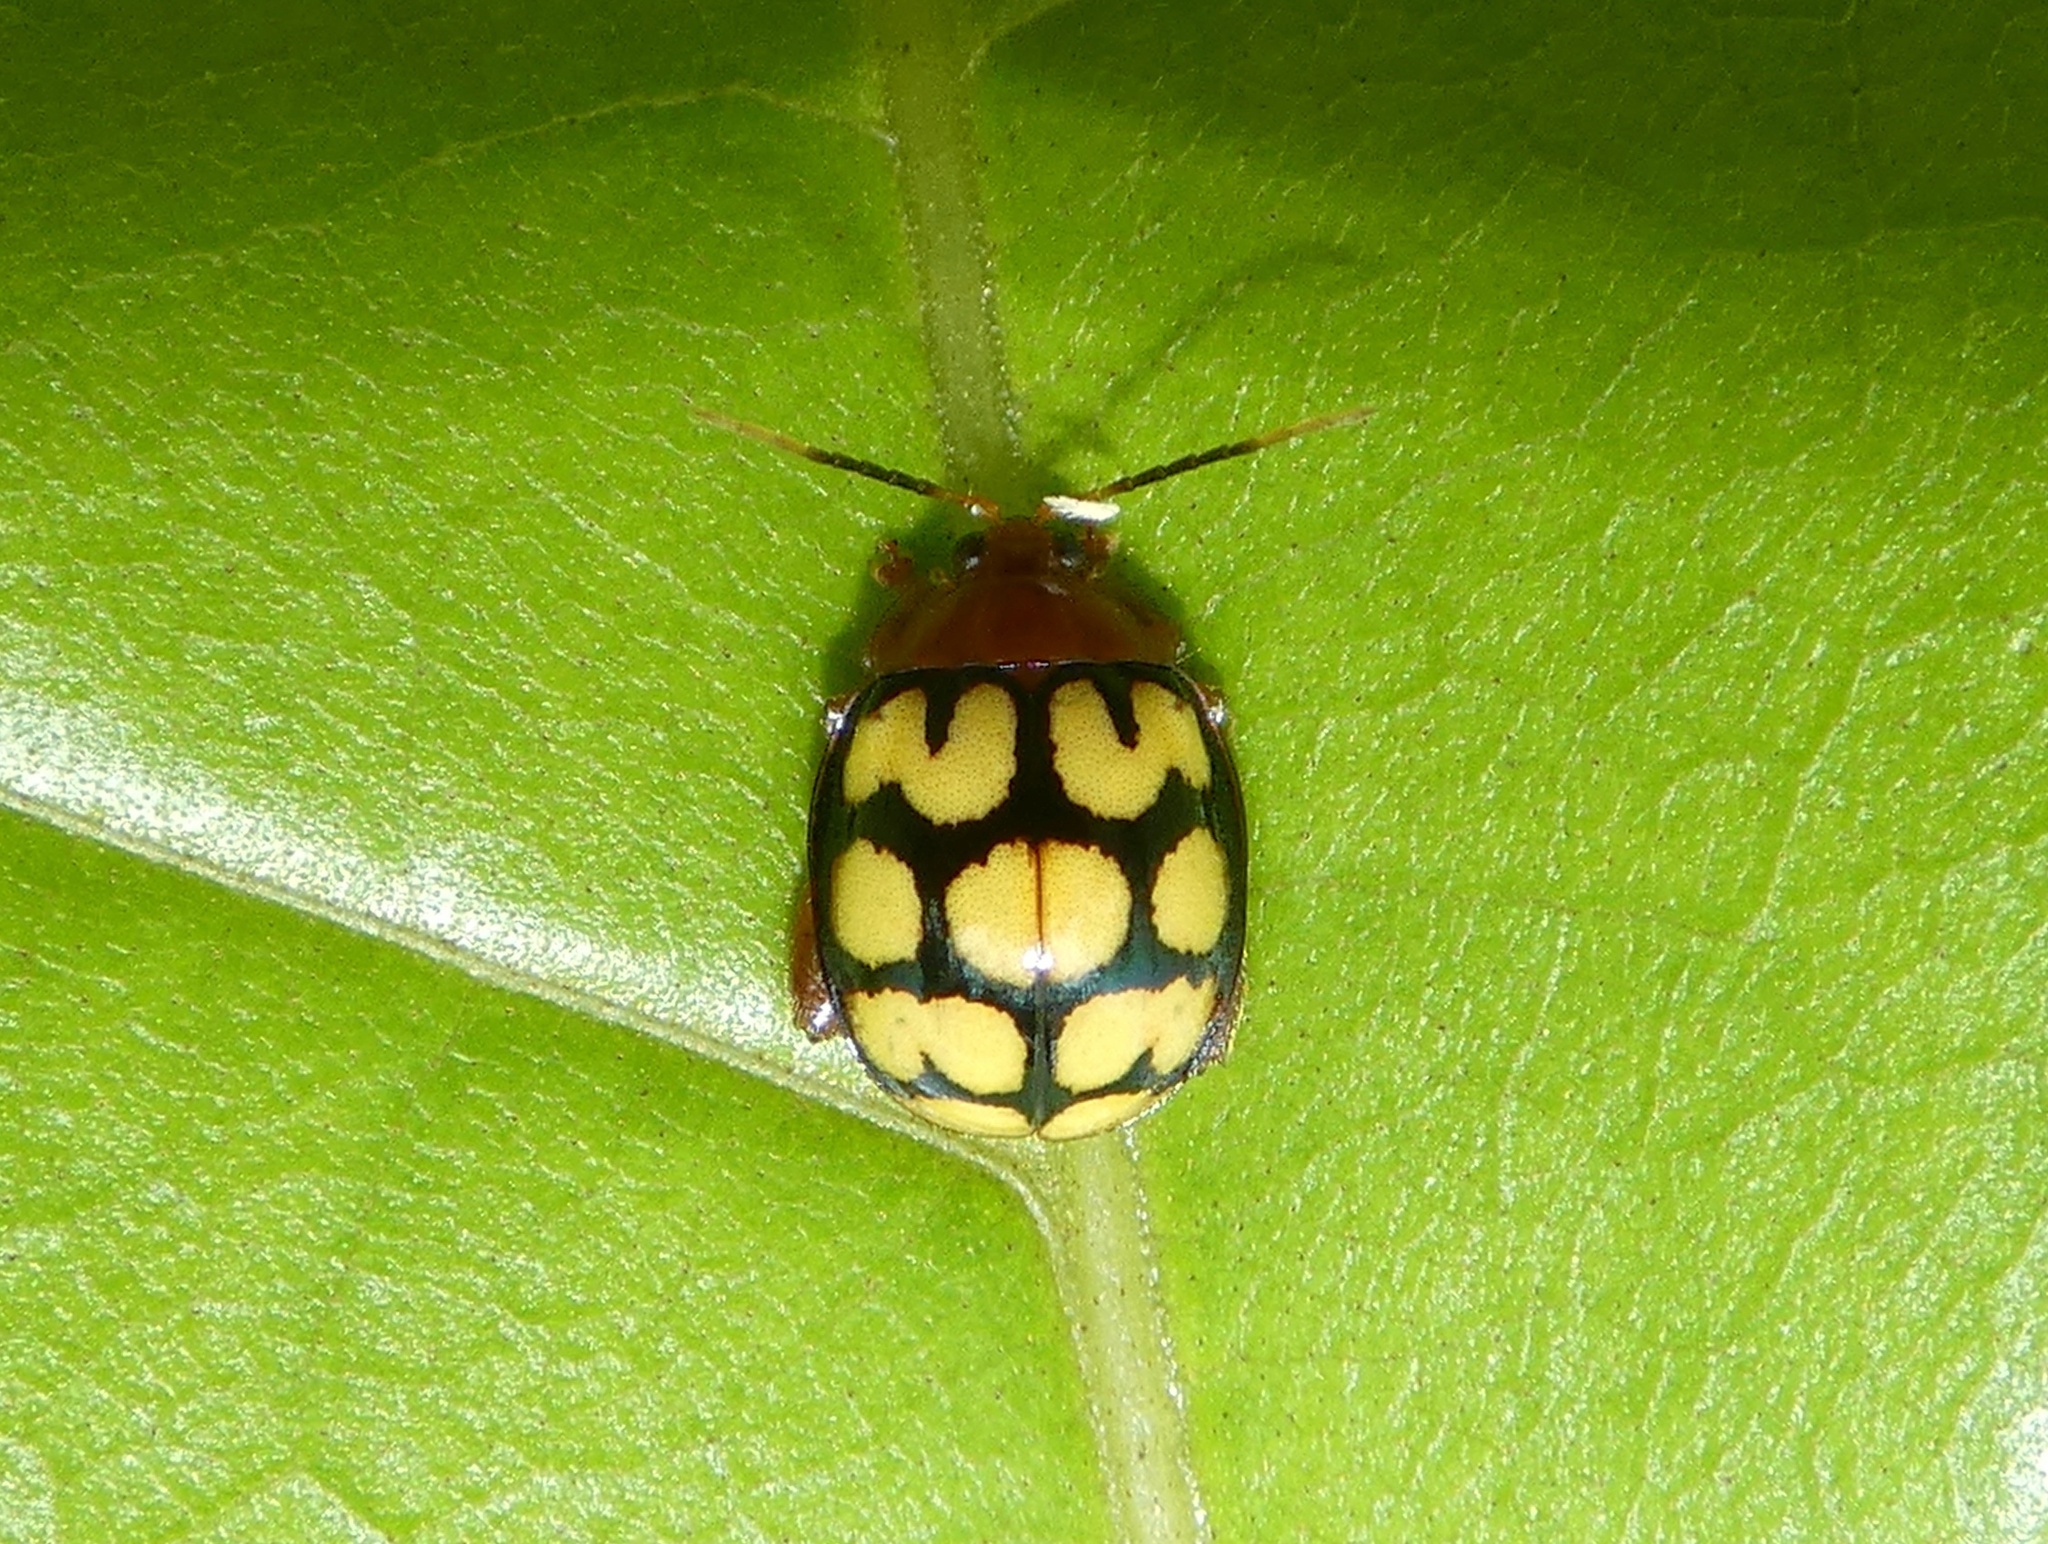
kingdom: Animalia
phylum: Arthropoda
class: Insecta
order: Coleoptera
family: Chrysomelidae
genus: Alagoasa
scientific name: Alagoasa
